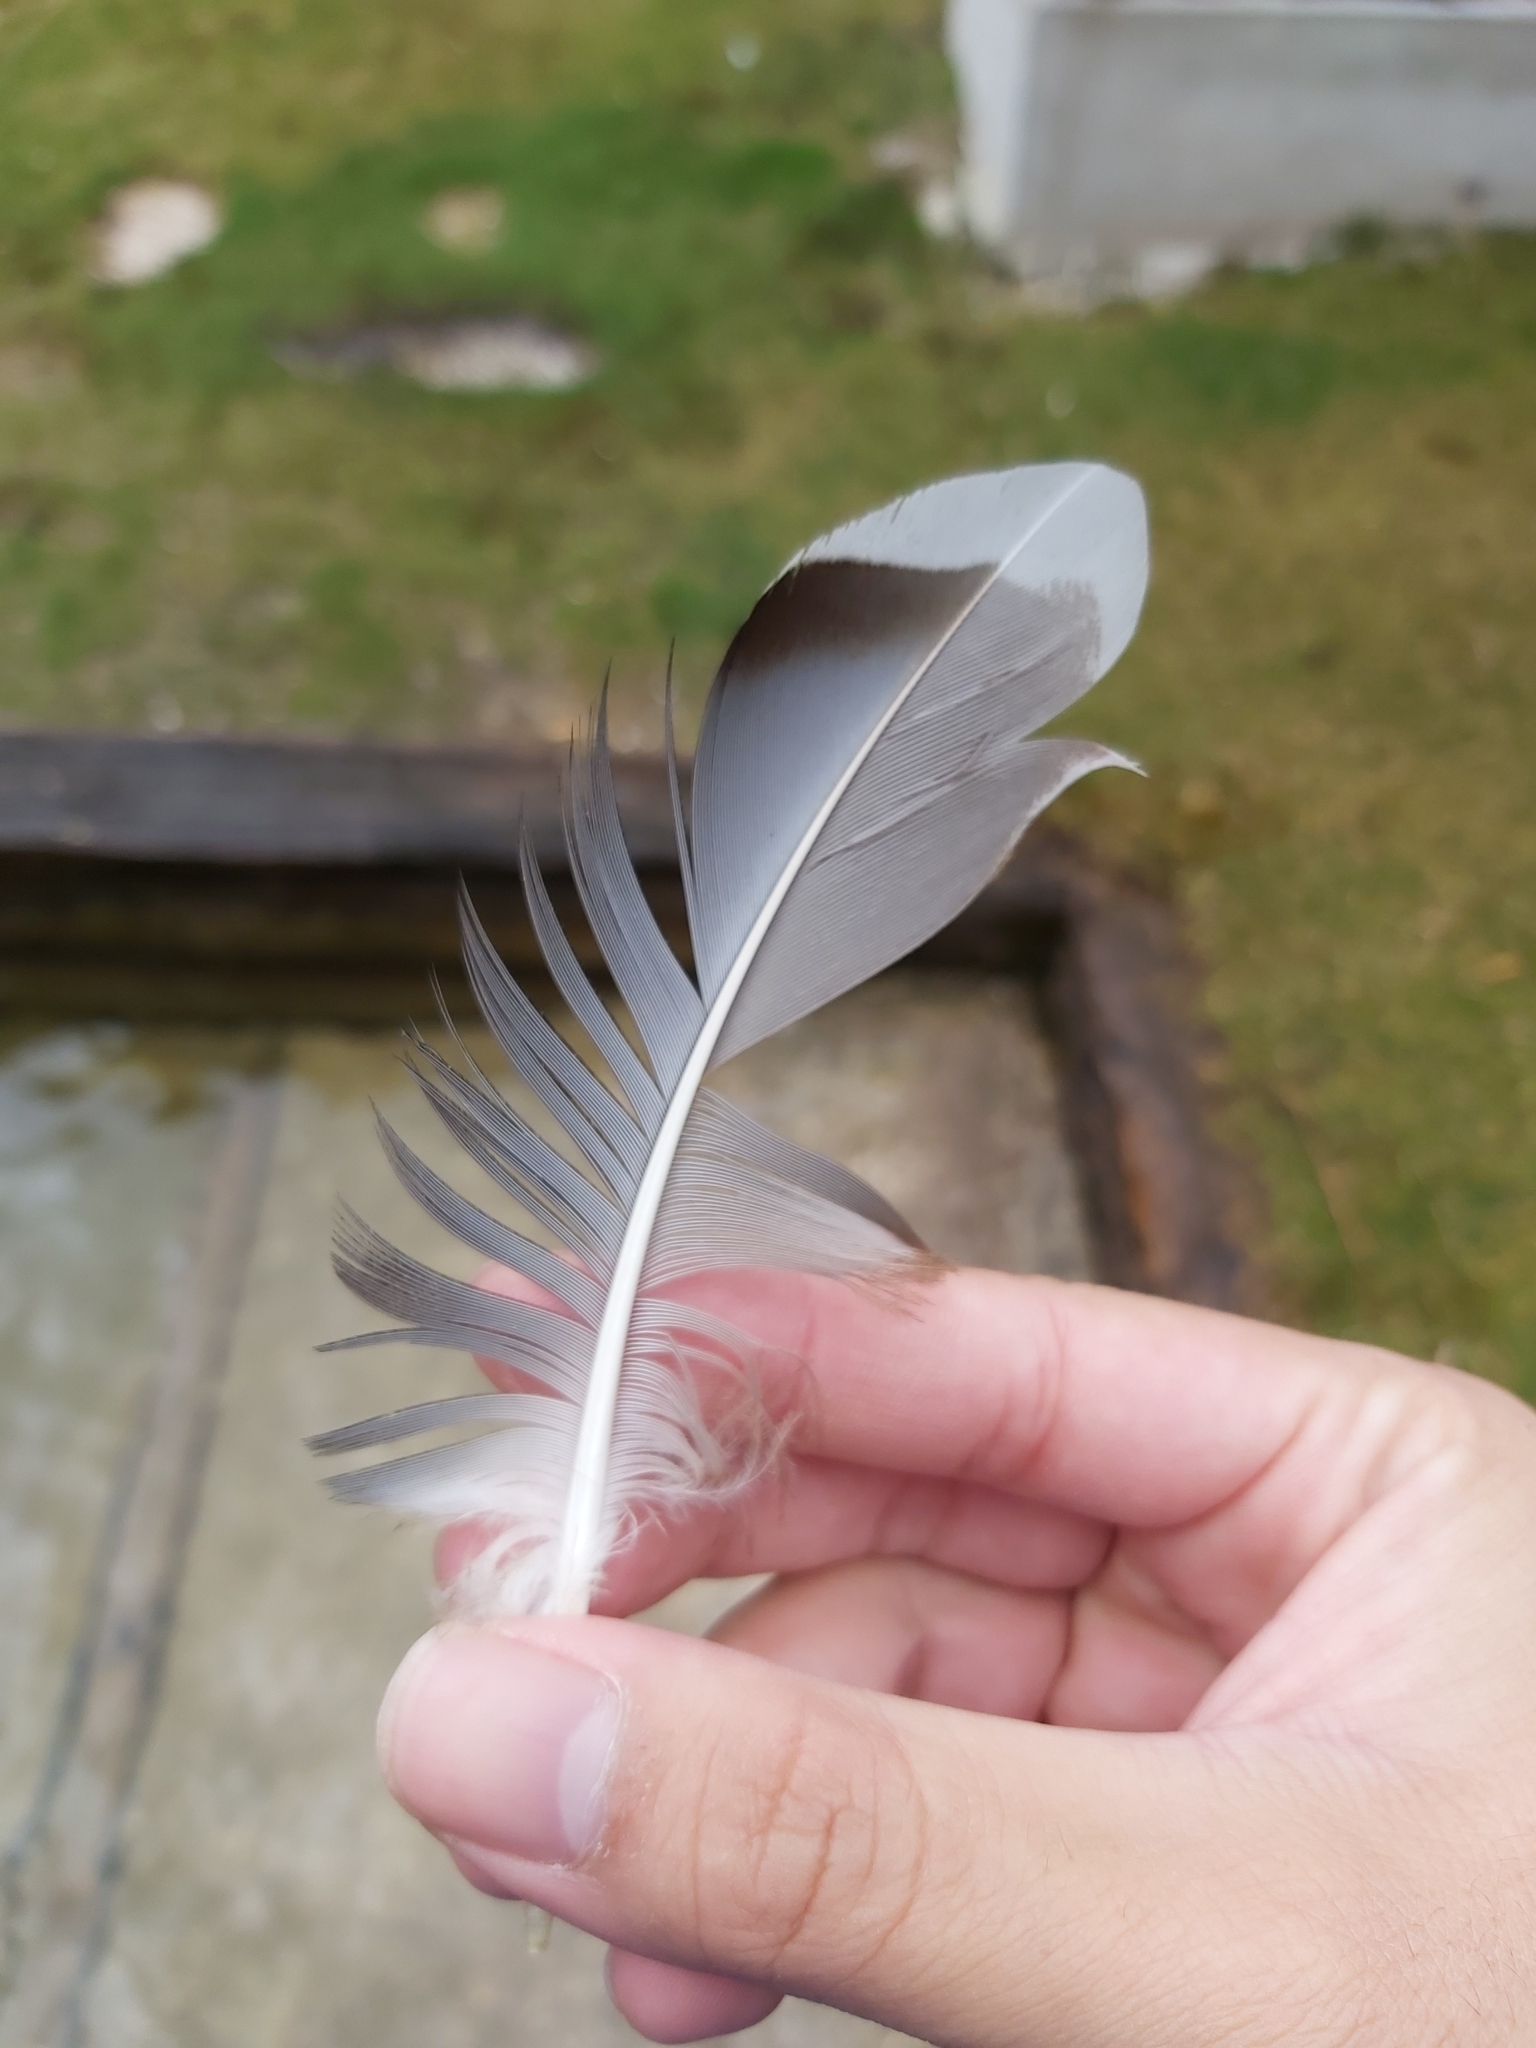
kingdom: Animalia
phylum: Chordata
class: Aves
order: Anseriformes
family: Anatidae
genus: Anas
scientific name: Anas platyrhynchos
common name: Mallard
